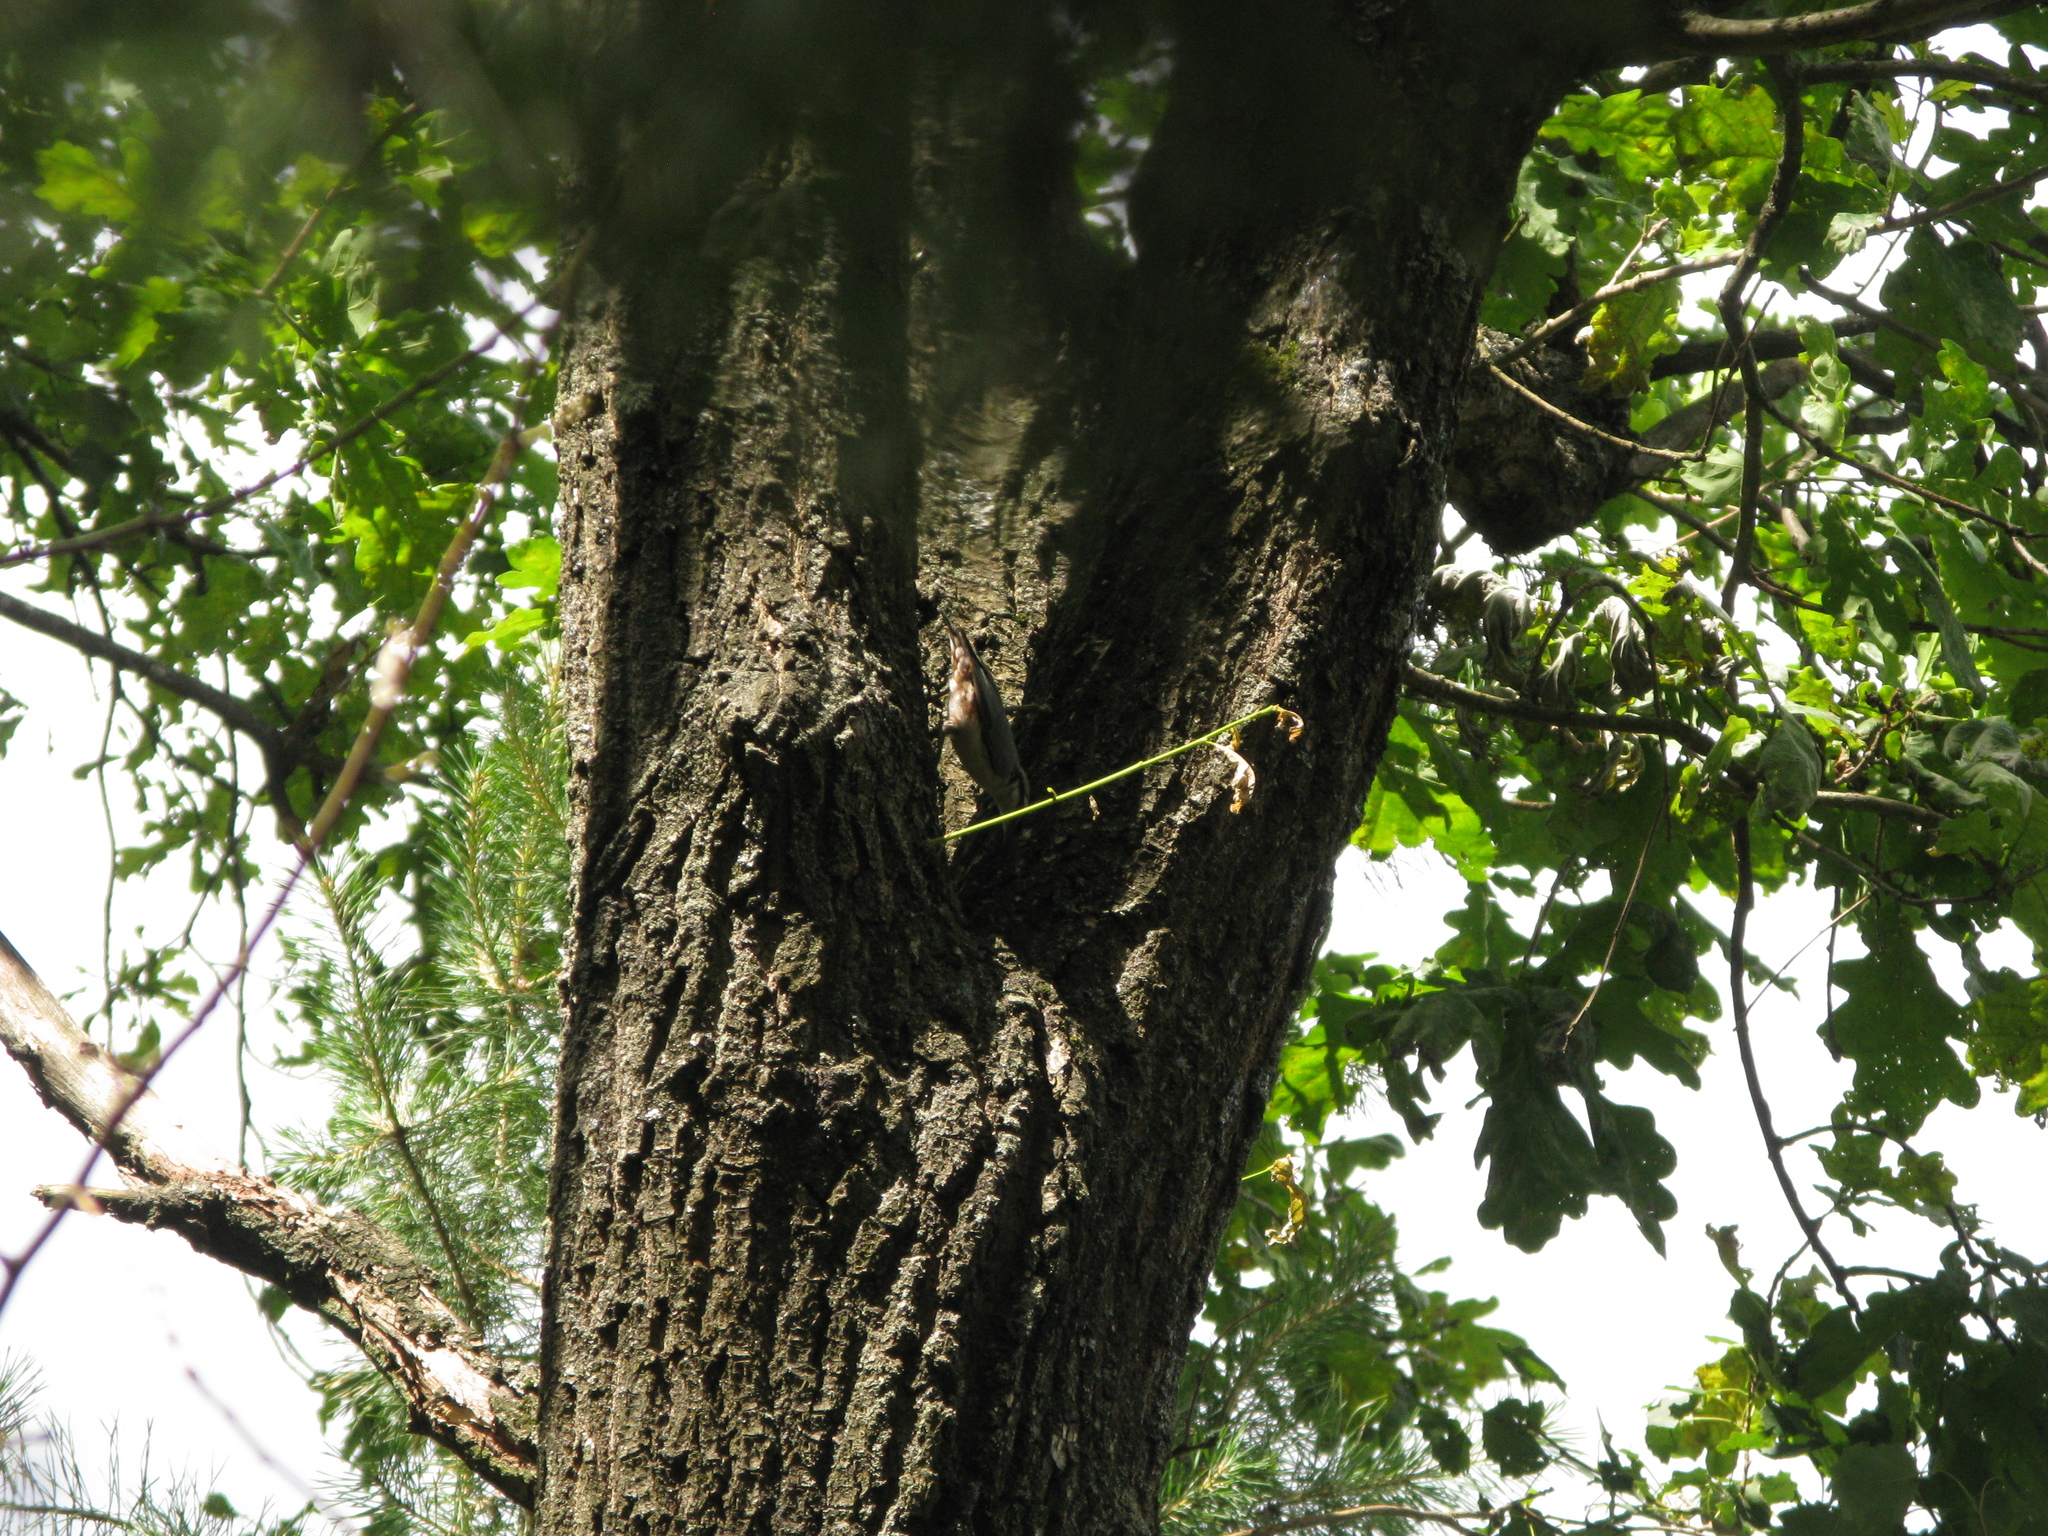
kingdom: Animalia
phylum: Chordata
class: Aves
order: Passeriformes
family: Sittidae
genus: Sitta
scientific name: Sitta europaea
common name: Eurasian nuthatch
